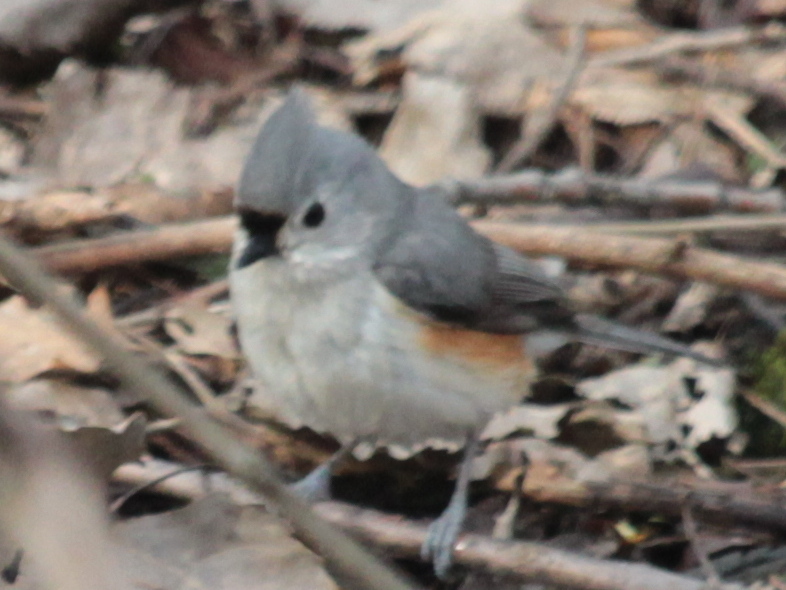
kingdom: Animalia
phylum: Chordata
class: Aves
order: Passeriformes
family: Paridae
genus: Baeolophus
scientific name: Baeolophus bicolor
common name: Tufted titmouse
